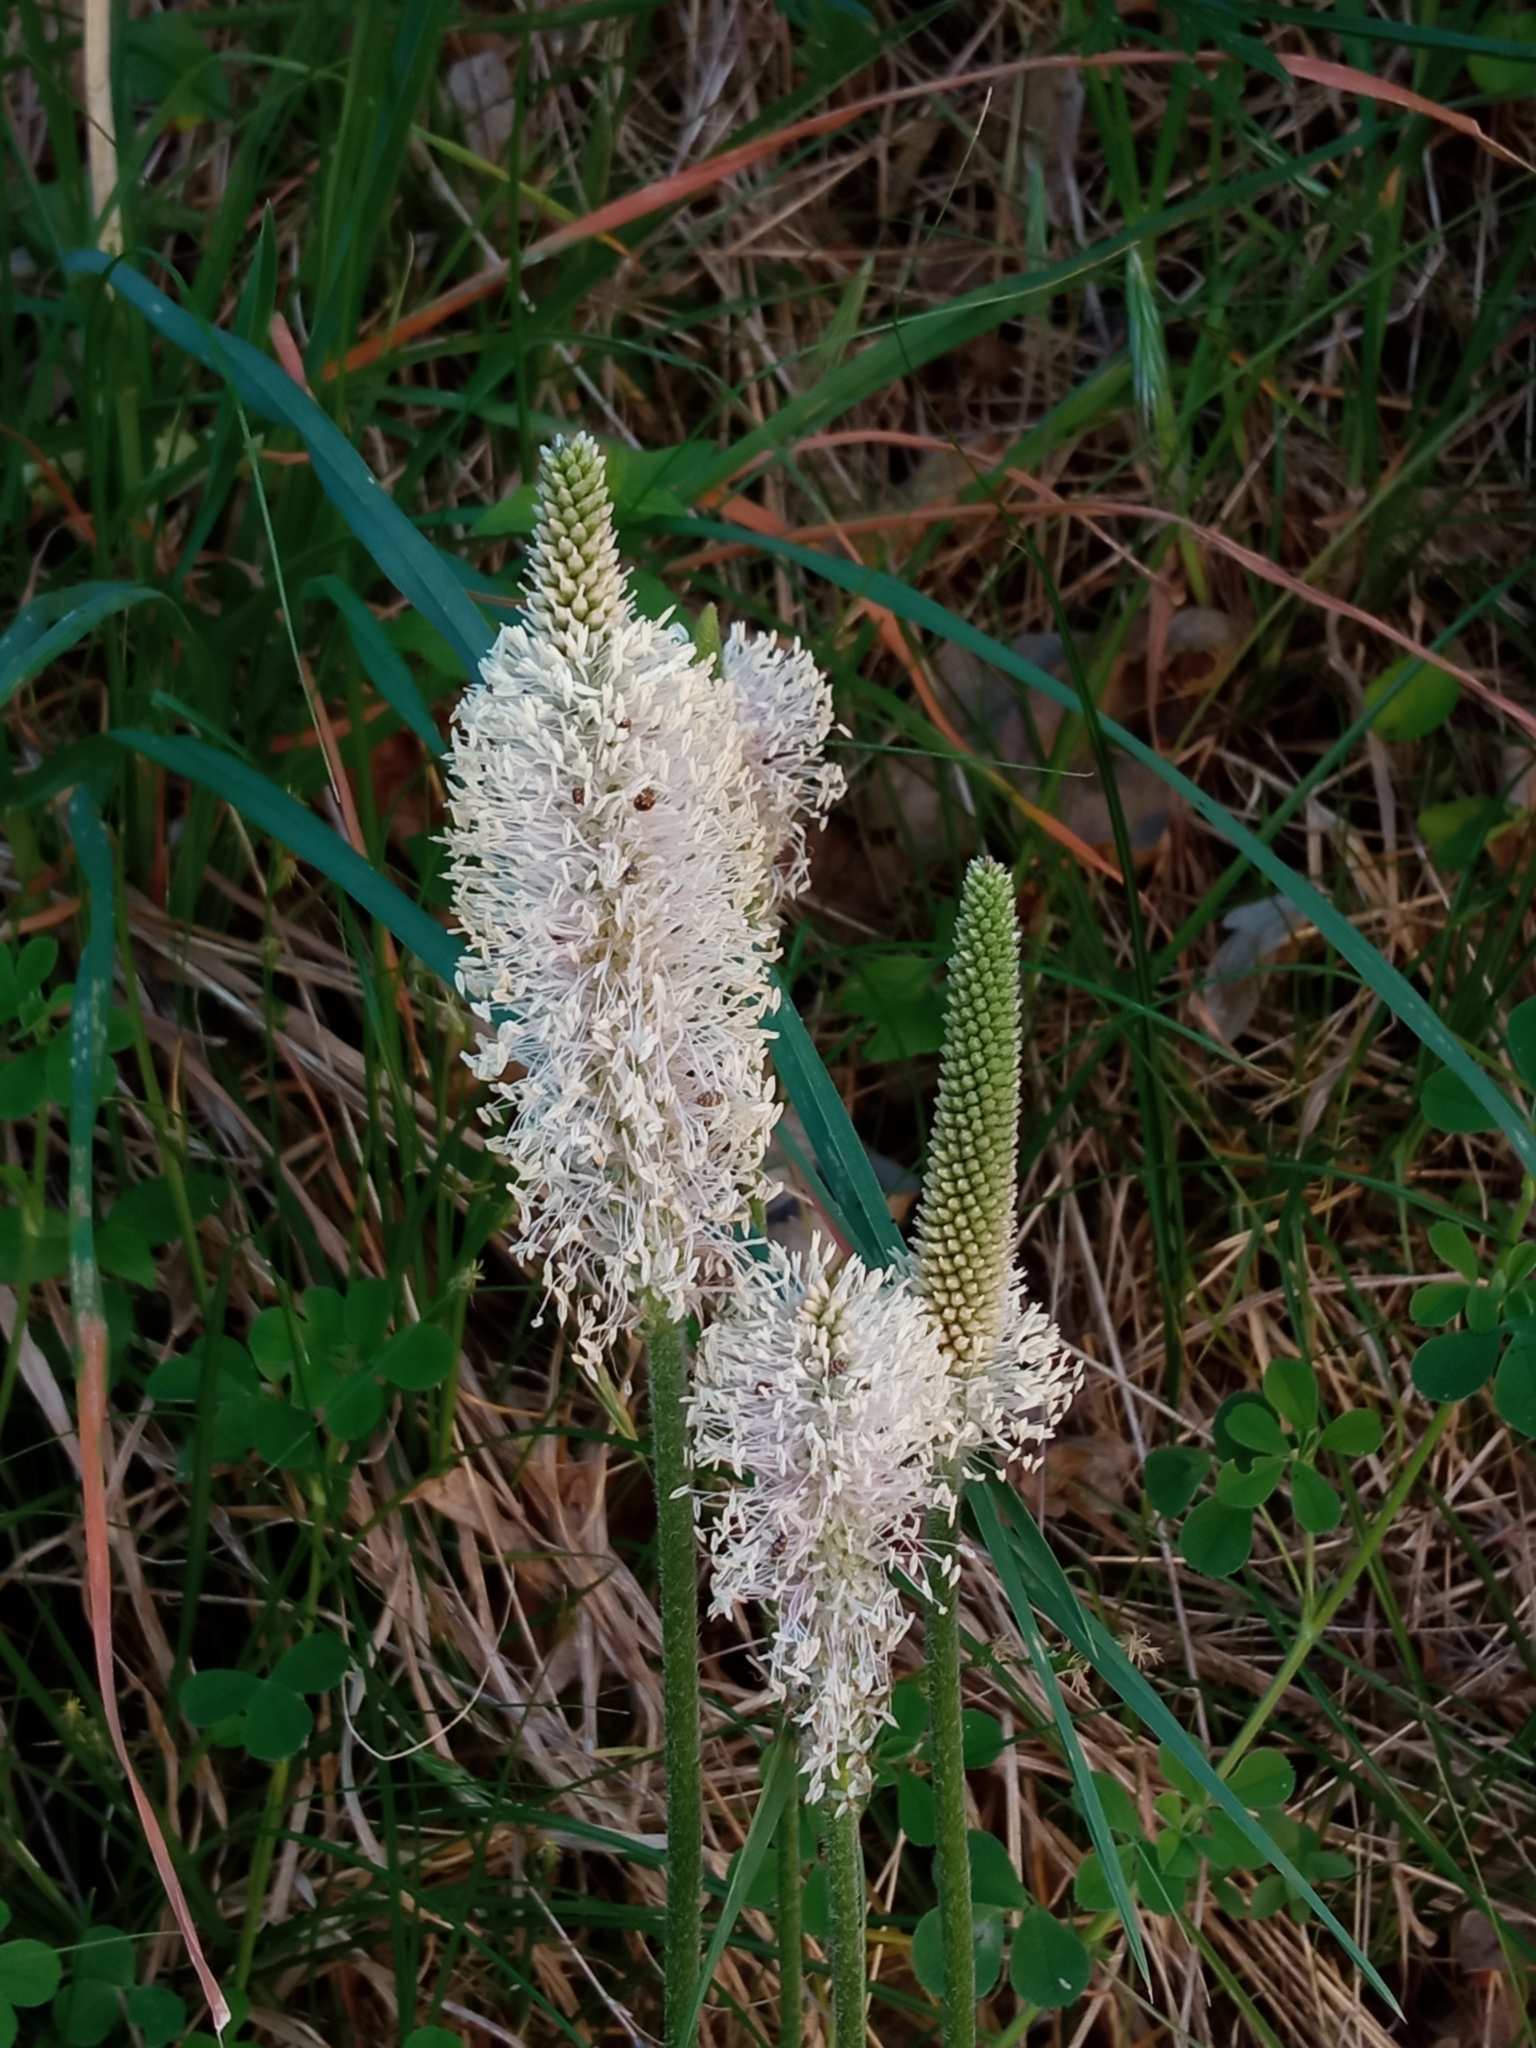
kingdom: Plantae
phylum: Tracheophyta
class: Magnoliopsida
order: Lamiales
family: Plantaginaceae
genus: Plantago
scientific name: Plantago media
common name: Hoary plantain
